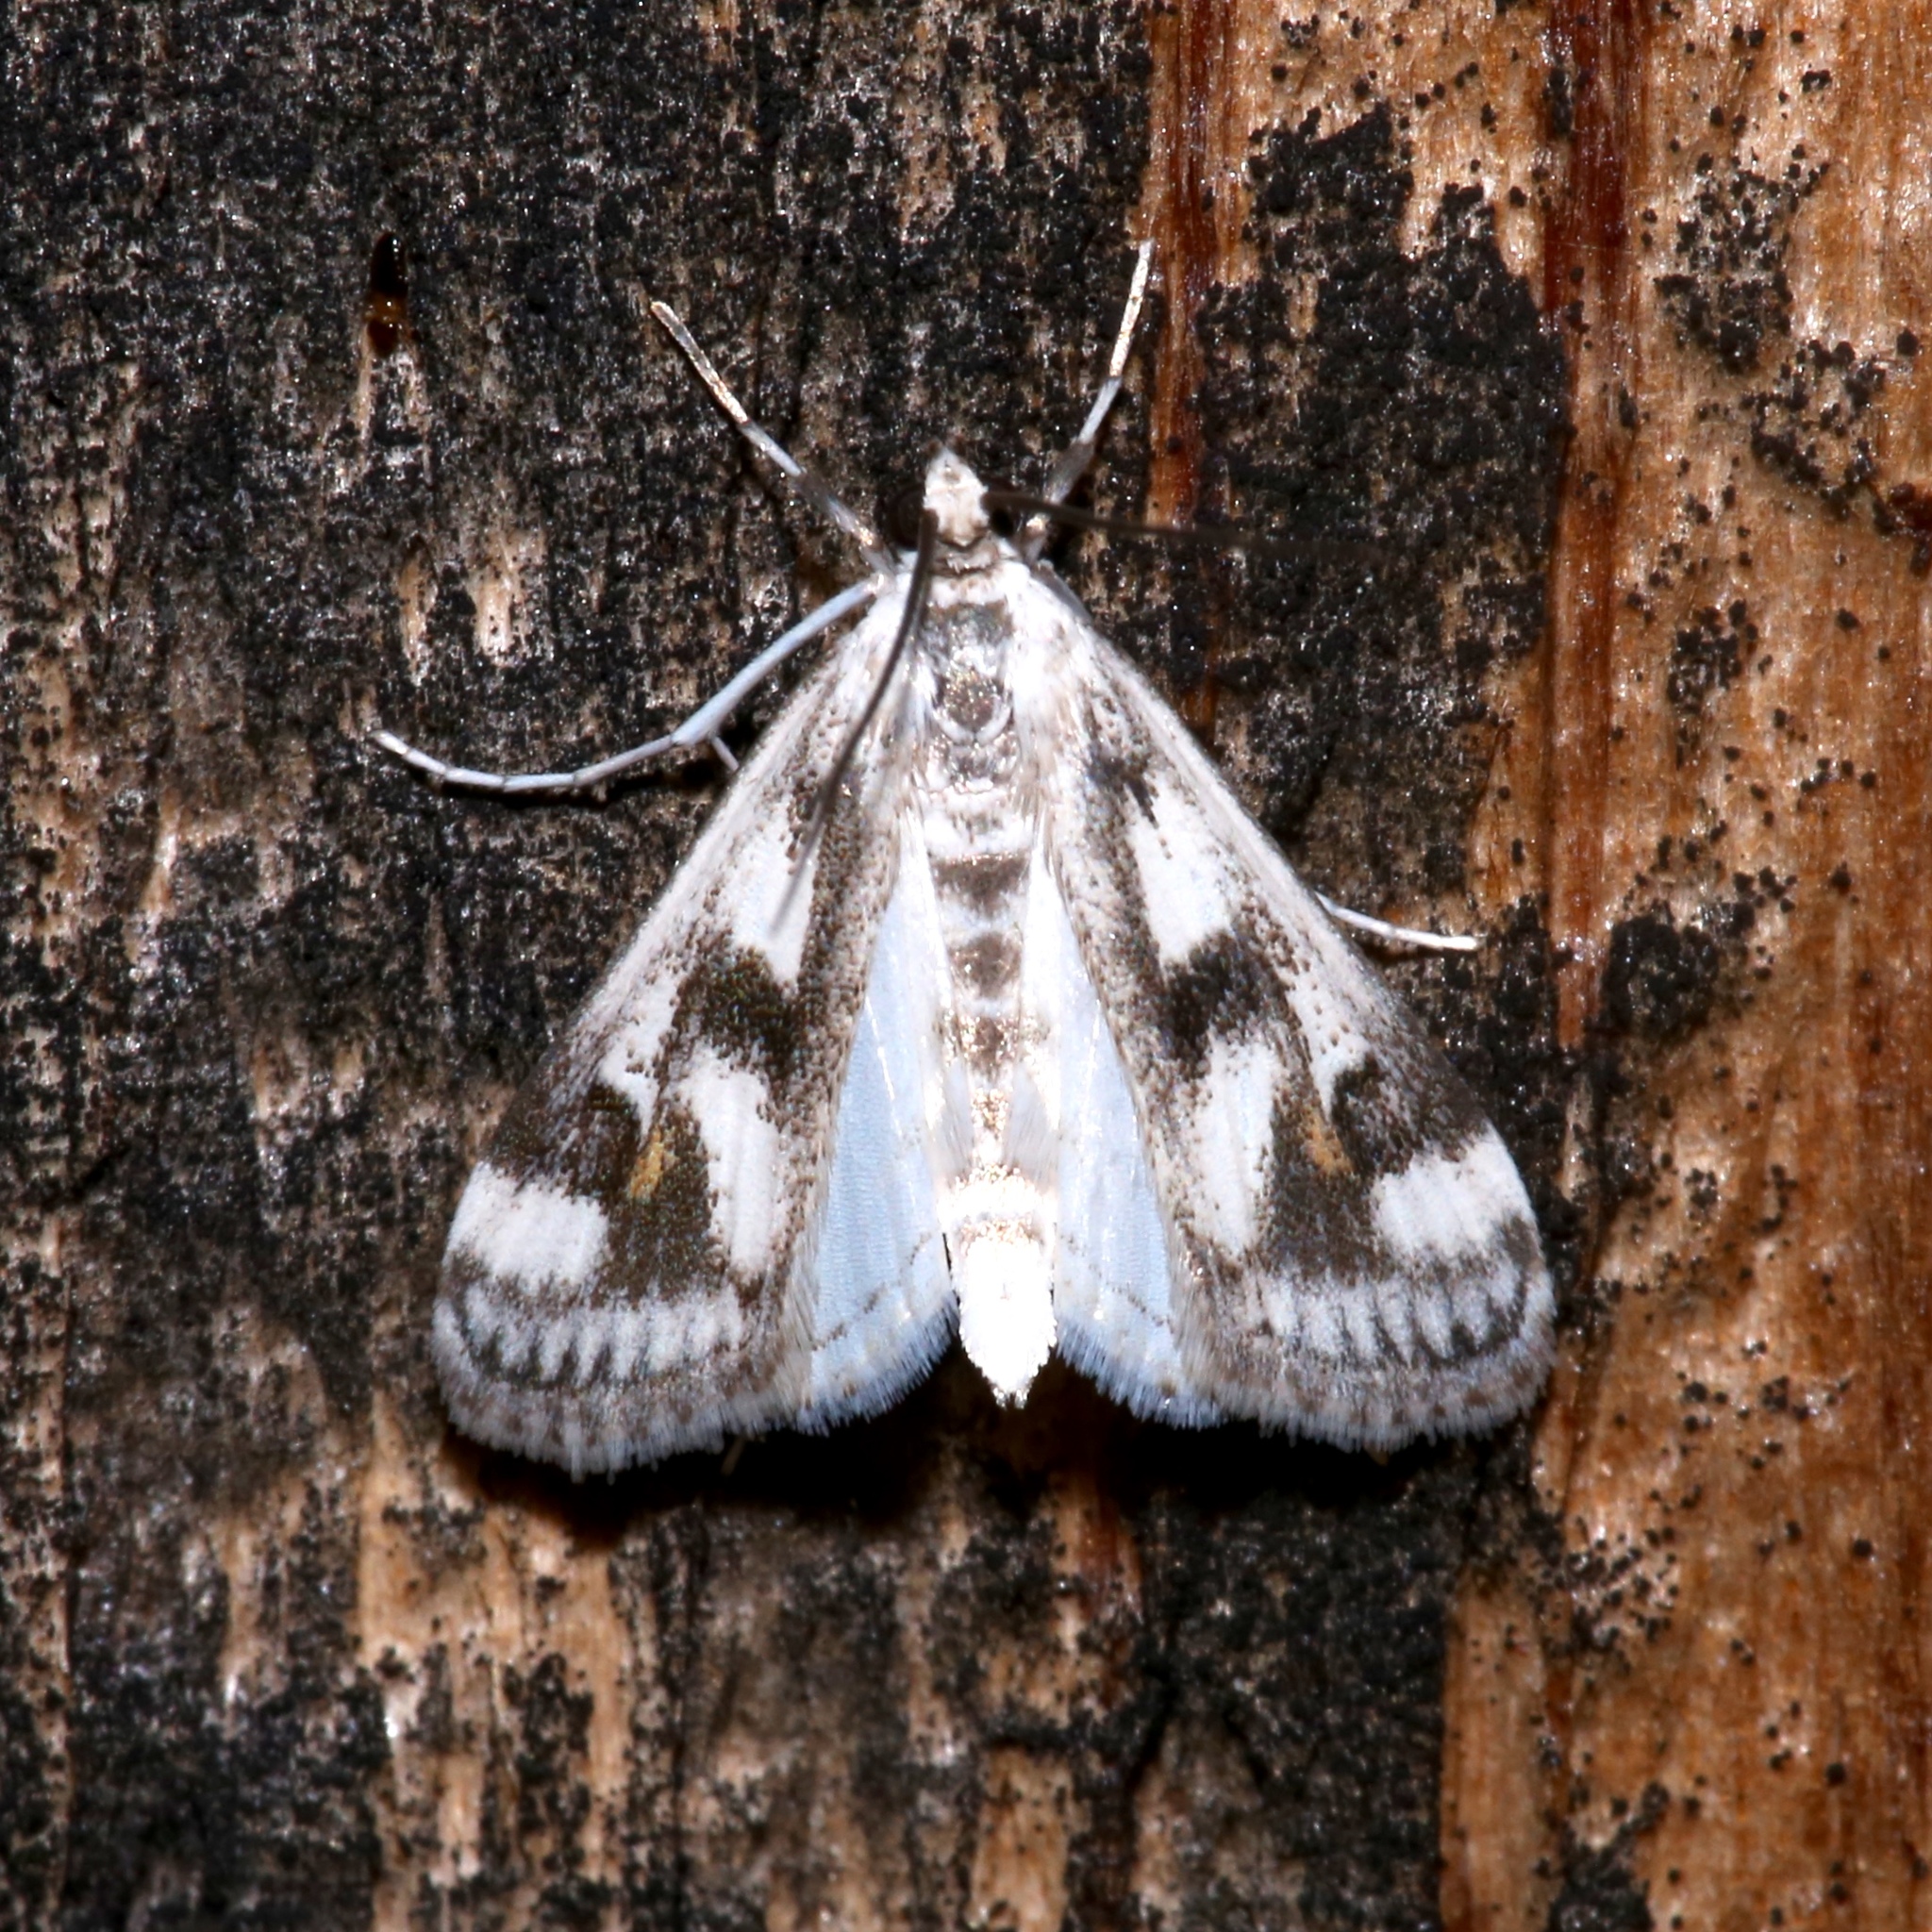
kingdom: Animalia
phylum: Arthropoda
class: Insecta
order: Lepidoptera
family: Crambidae
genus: Parapoynx
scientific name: Parapoynx maculalis
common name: Polymorphic pondweed moth
